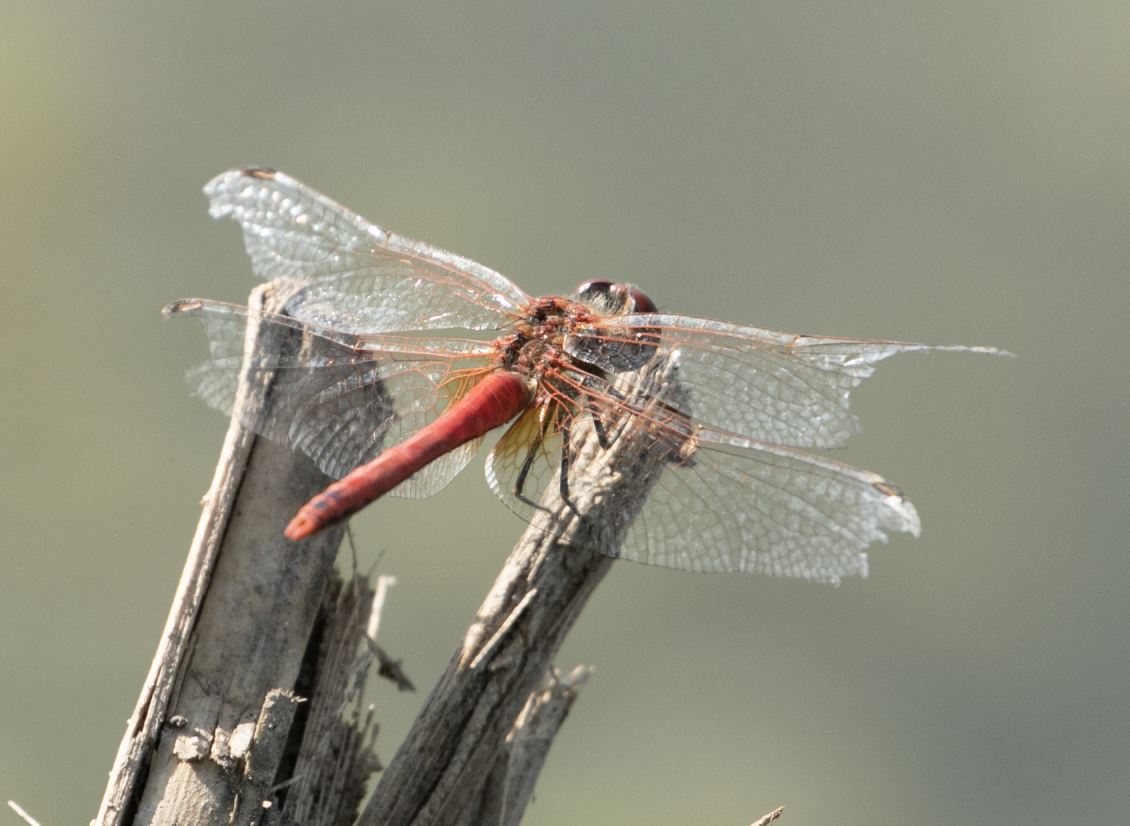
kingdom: Animalia
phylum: Arthropoda
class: Insecta
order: Odonata
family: Libellulidae
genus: Sympetrum
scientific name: Sympetrum fonscolombii
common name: Red-veined darter
